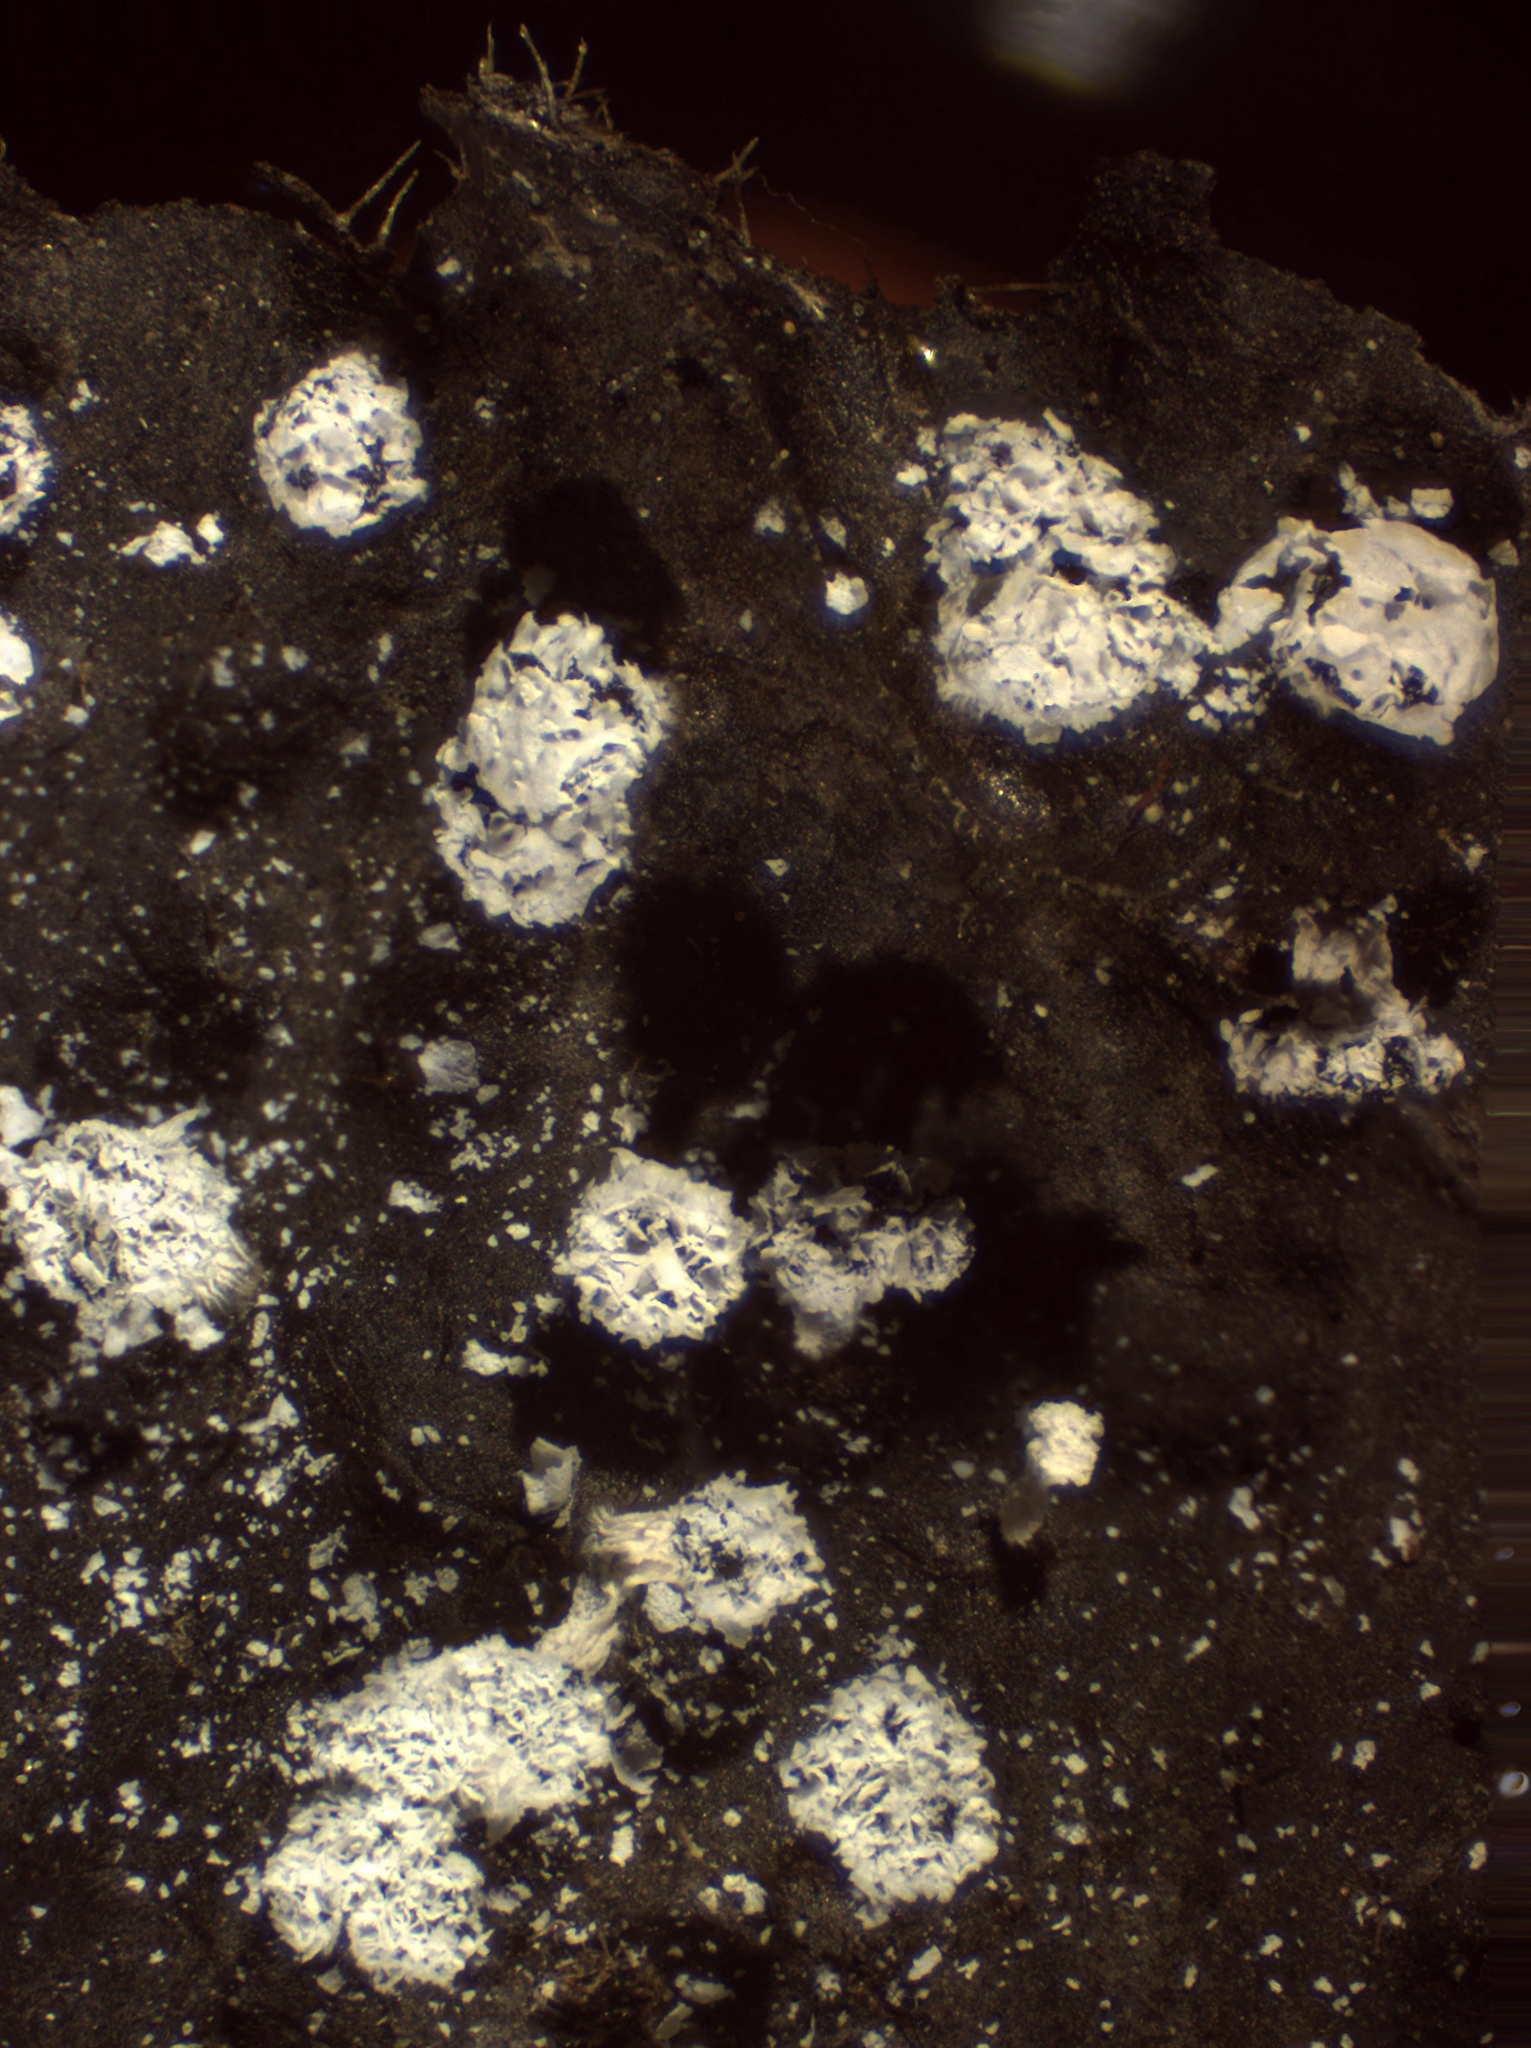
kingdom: Protozoa
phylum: Mycetozoa
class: Myxomycetes
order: Physarales
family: Didymiaceae
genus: Didymium
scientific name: Didymium squamulosum
